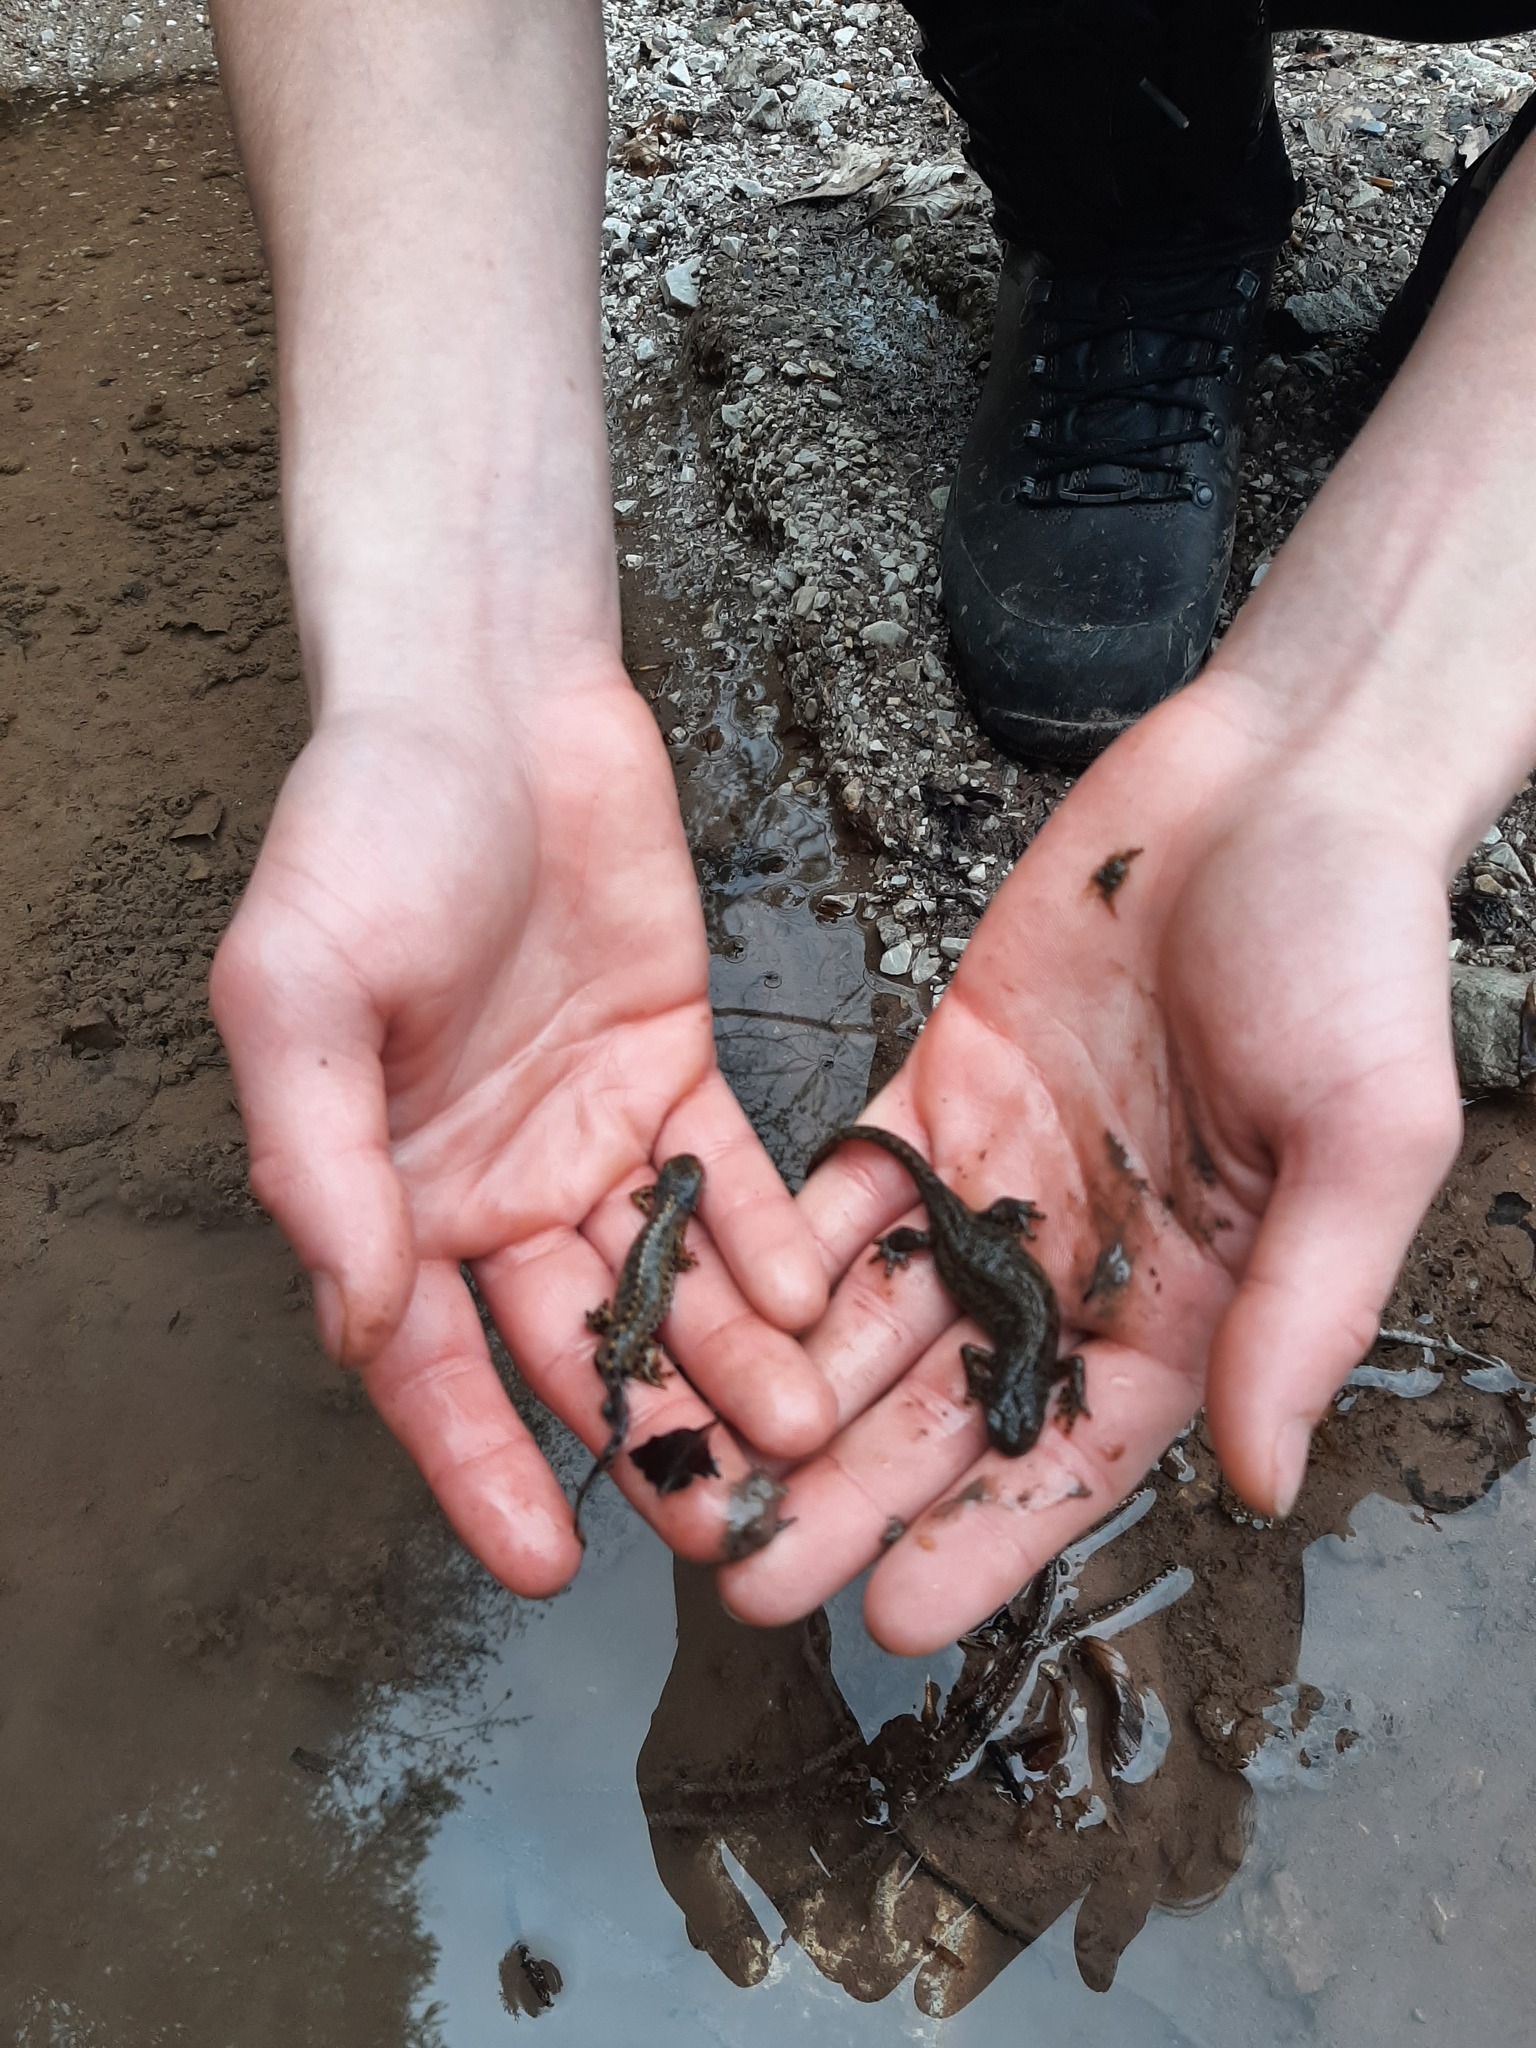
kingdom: Animalia
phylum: Chordata
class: Amphibia
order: Caudata
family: Salamandridae
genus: Ichthyosaura
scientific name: Ichthyosaura alpestris
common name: Alpine newt
